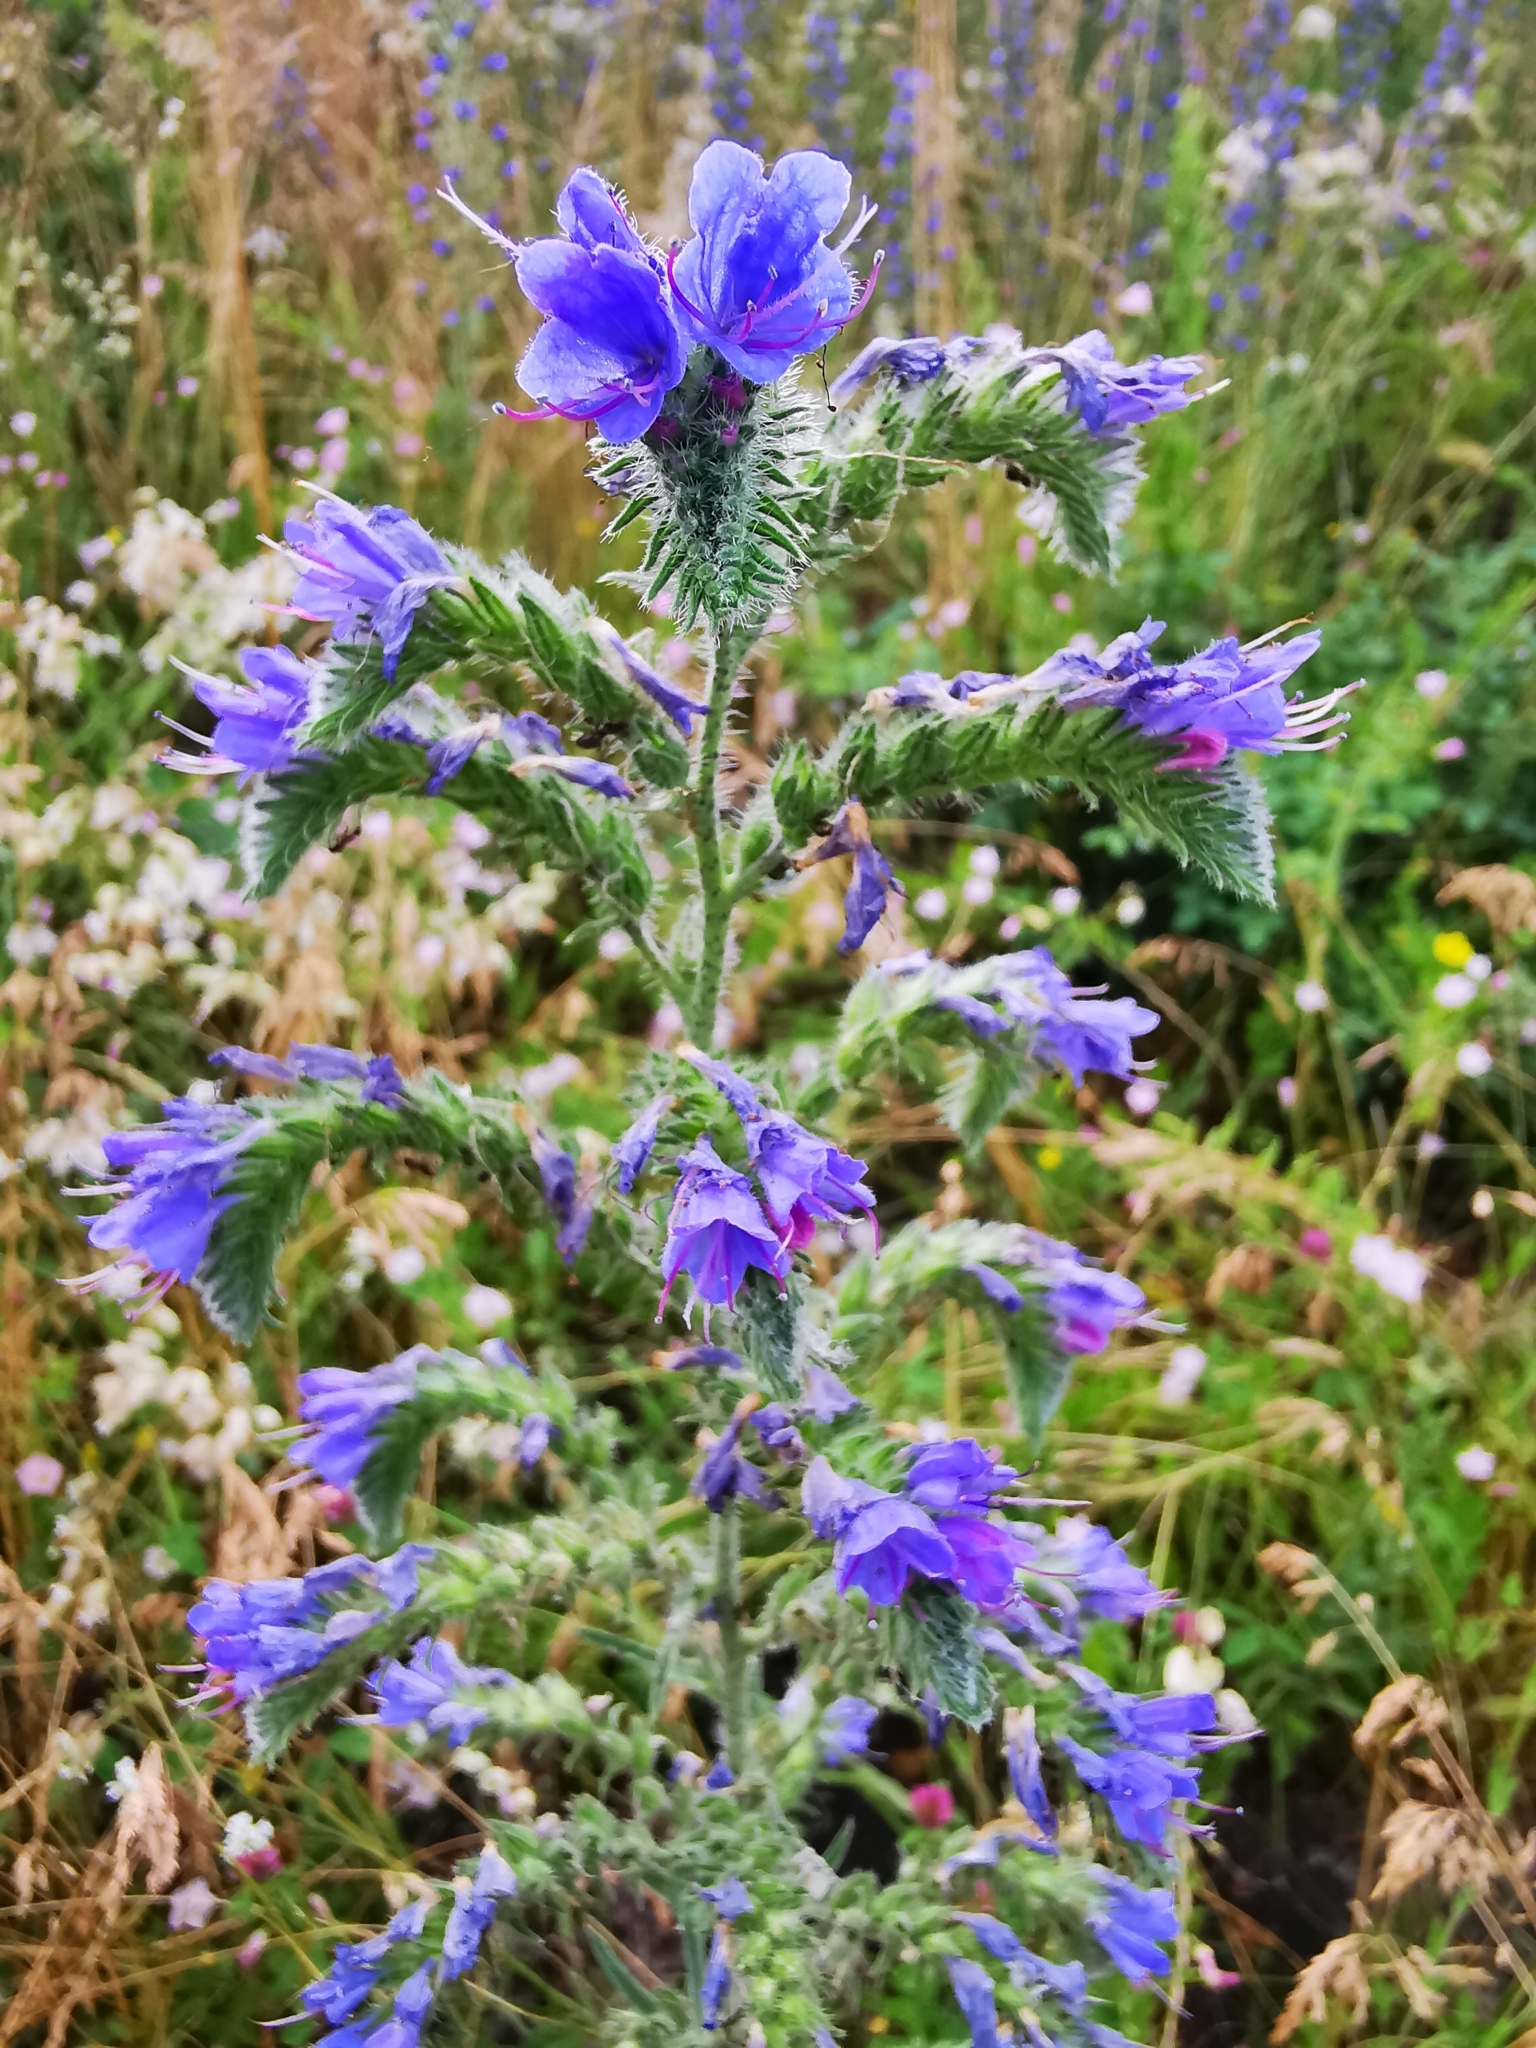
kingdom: Plantae
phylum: Tracheophyta
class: Magnoliopsida
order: Boraginales
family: Boraginaceae
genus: Echium
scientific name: Echium vulgare
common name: Common viper's bugloss
